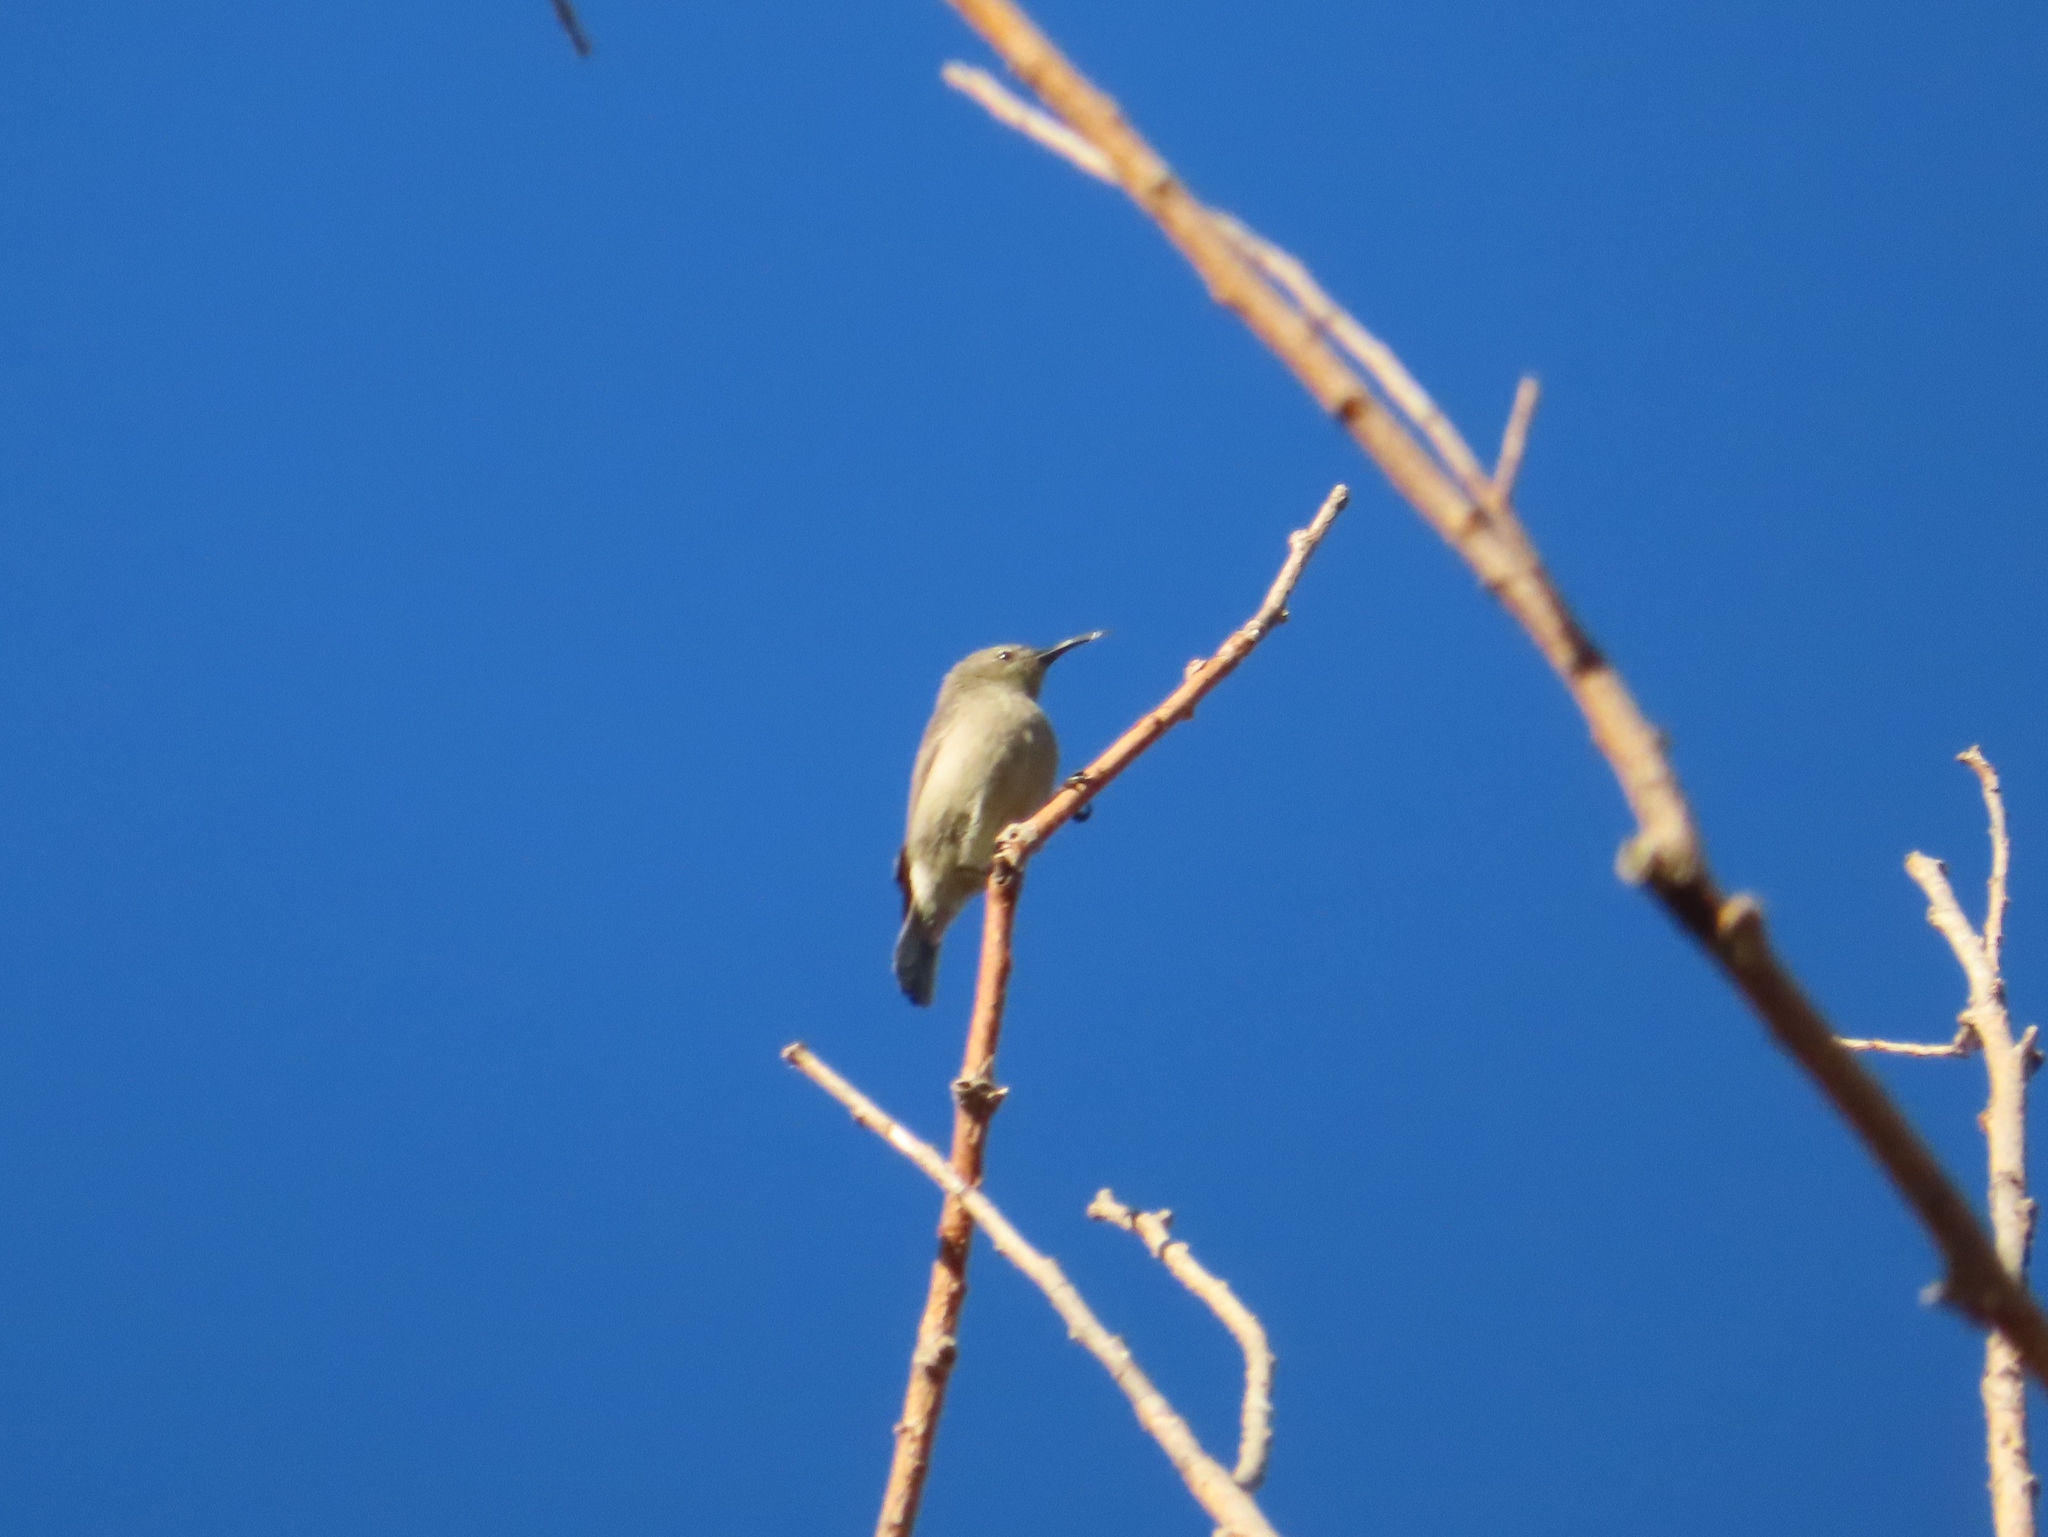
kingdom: Animalia
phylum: Chordata
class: Aves
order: Passeriformes
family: Nectariniidae
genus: Cinnyris
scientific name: Cinnyris chalybeus
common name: Southern double-collared sunbird
